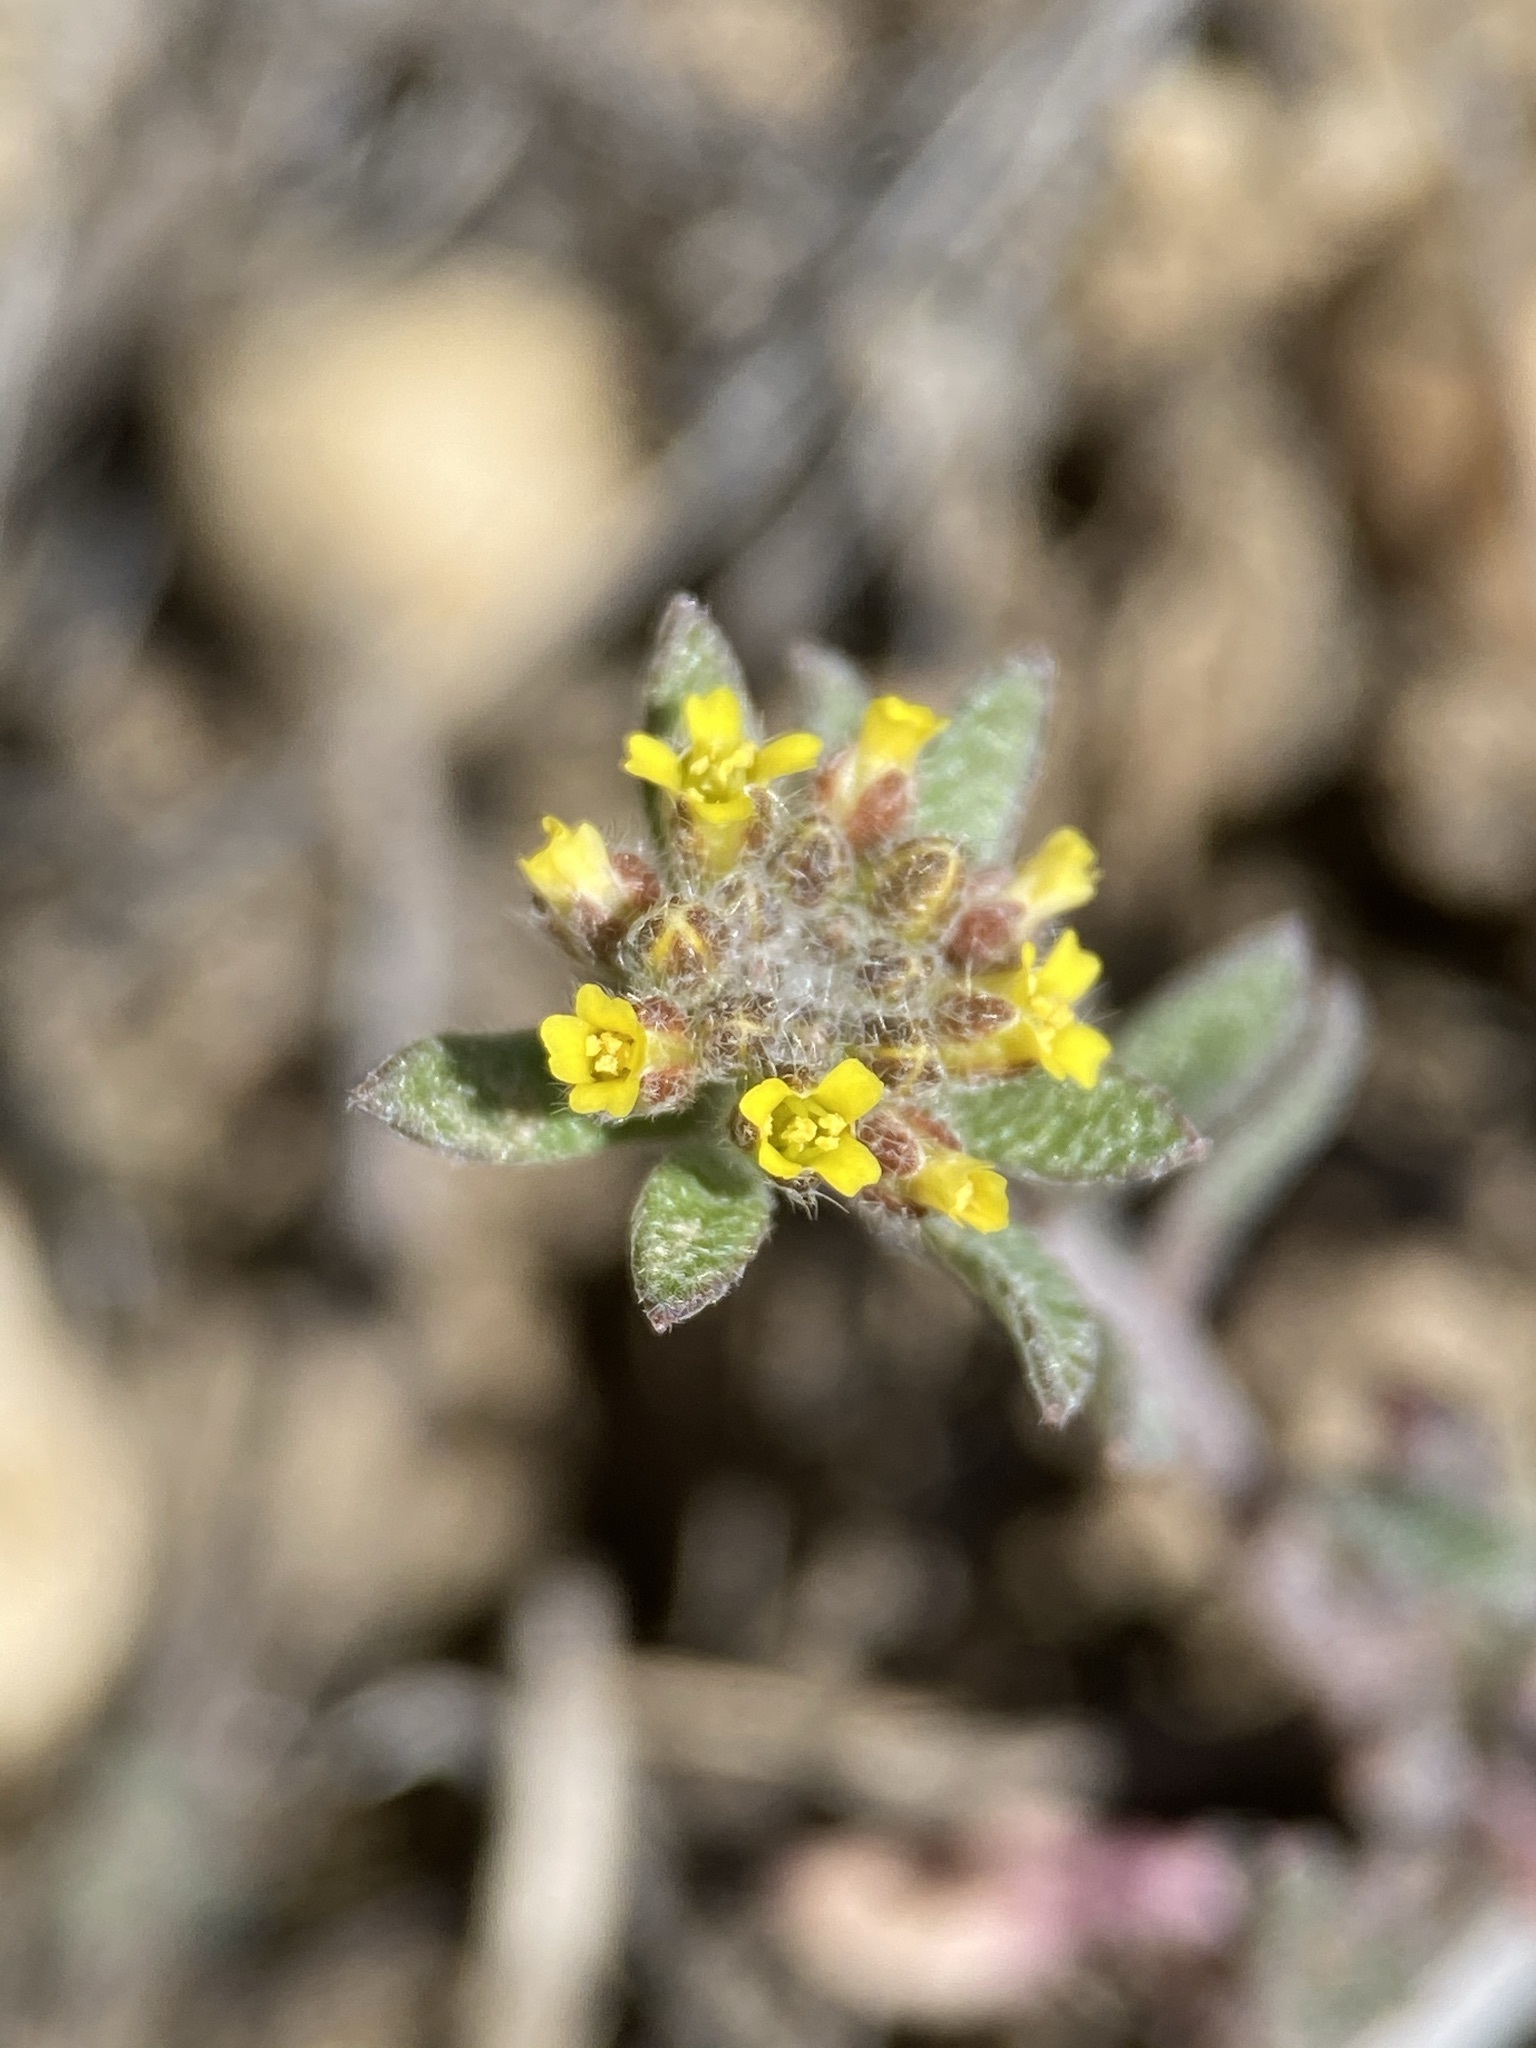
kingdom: Plantae
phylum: Tracheophyta
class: Magnoliopsida
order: Brassicales
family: Brassicaceae
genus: Alyssum
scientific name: Alyssum turkestanicum
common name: Desert alyssum
